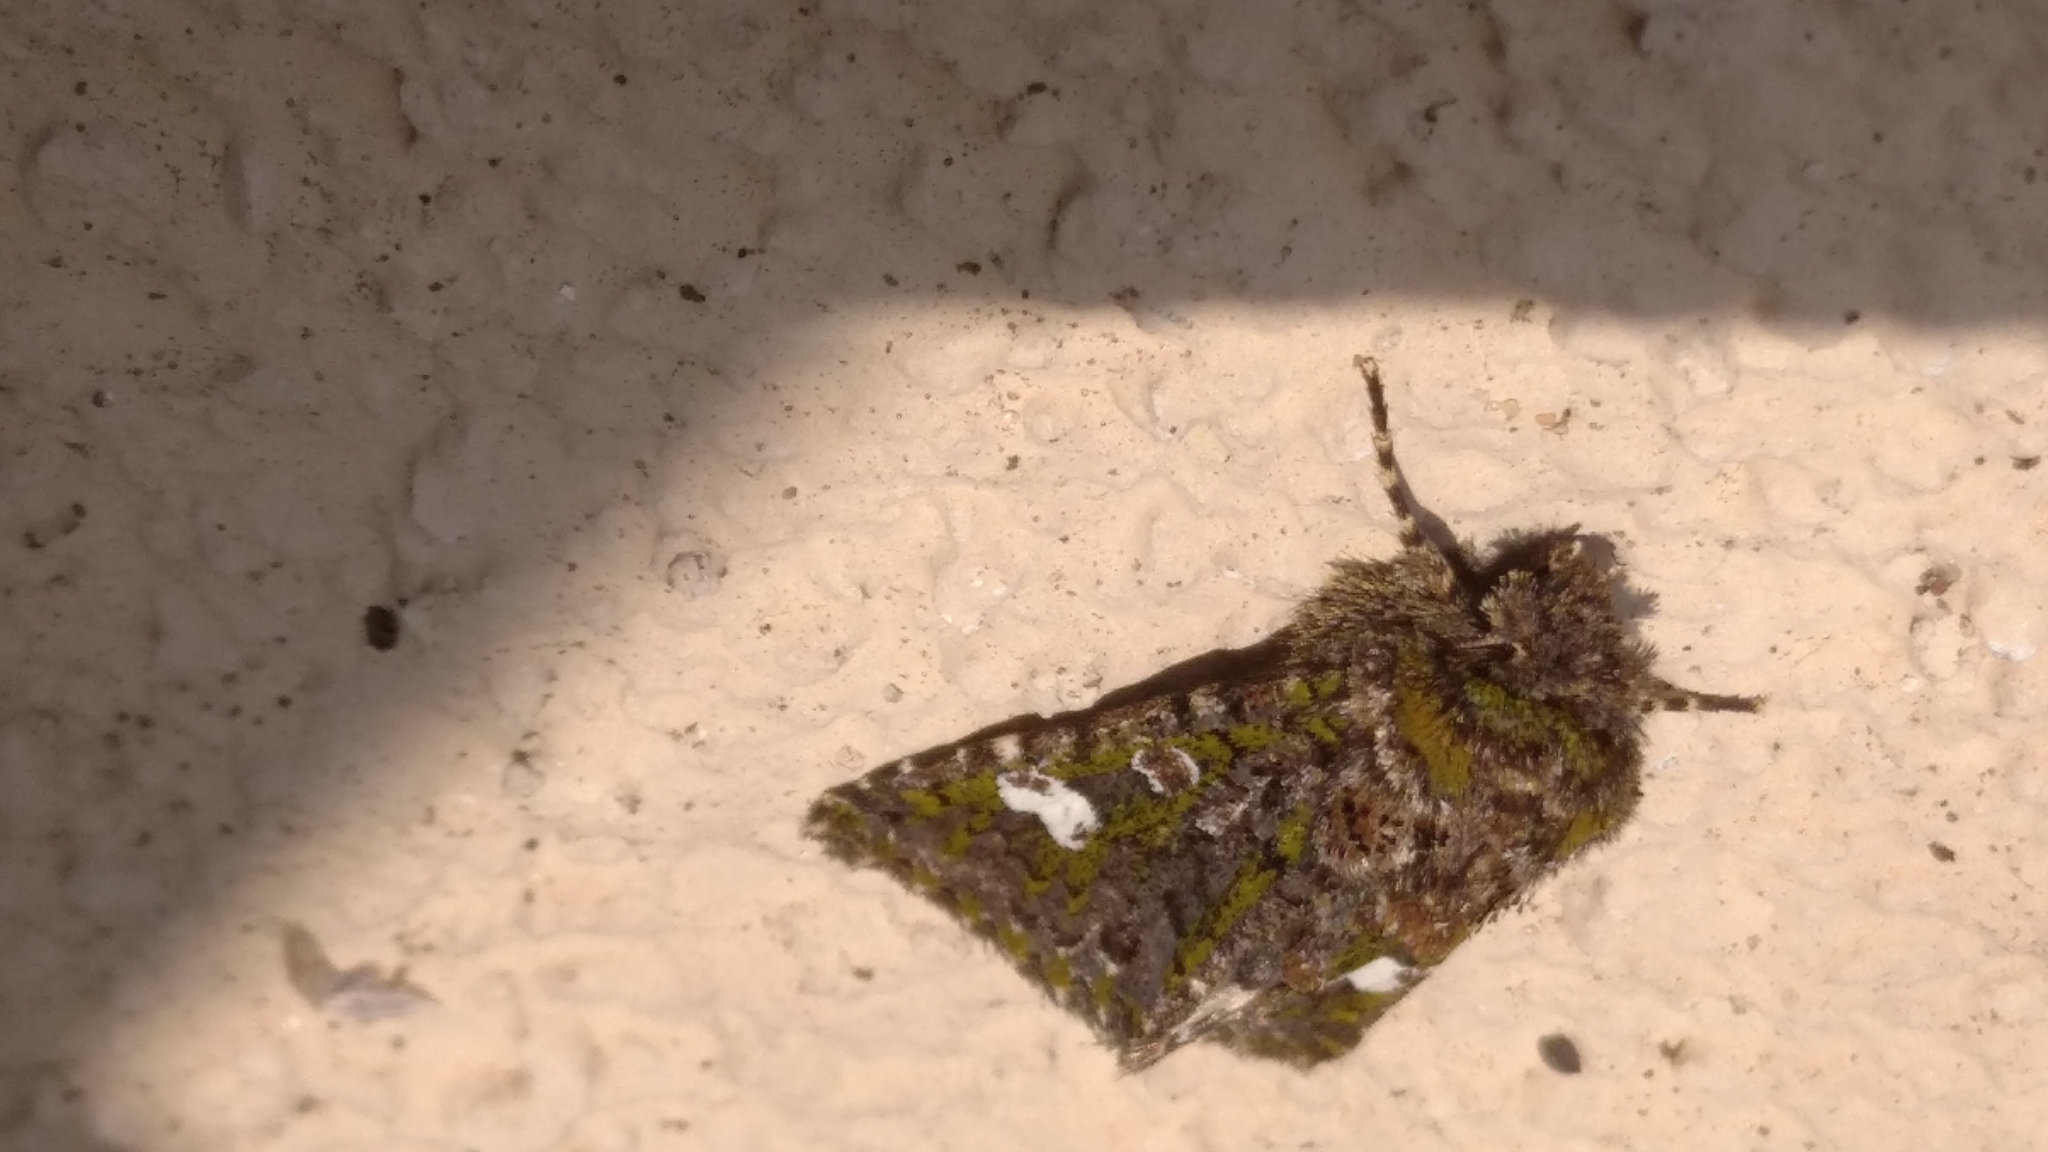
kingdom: Animalia
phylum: Arthropoda
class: Insecta
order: Lepidoptera
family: Noctuidae
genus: Valeria
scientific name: Valeria oleagina
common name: Green-brindled dot
